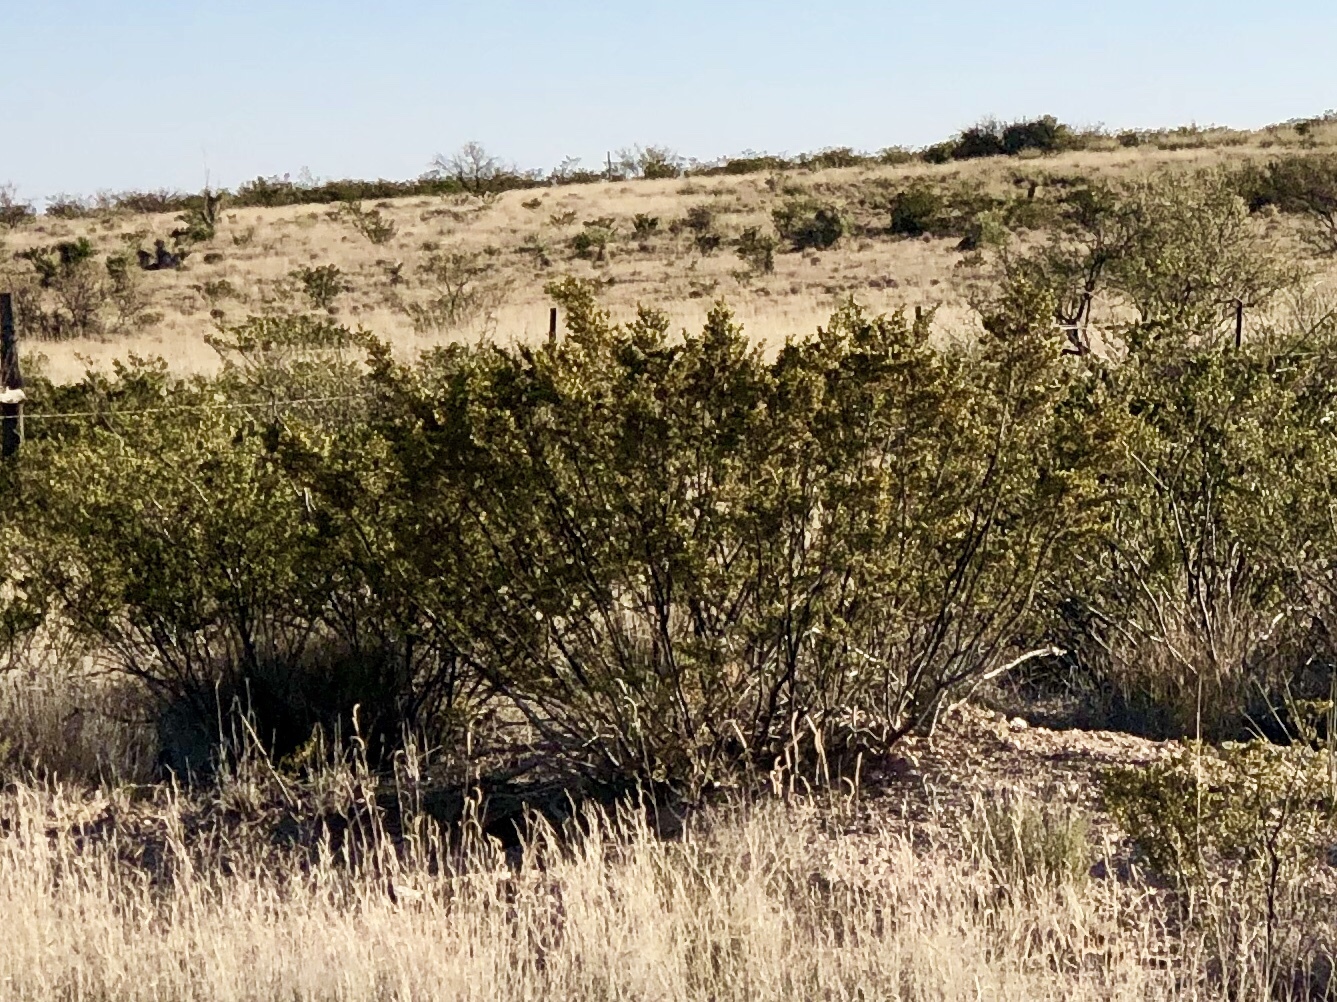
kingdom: Plantae
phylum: Tracheophyta
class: Magnoliopsida
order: Zygophyllales
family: Zygophyllaceae
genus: Larrea
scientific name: Larrea tridentata
